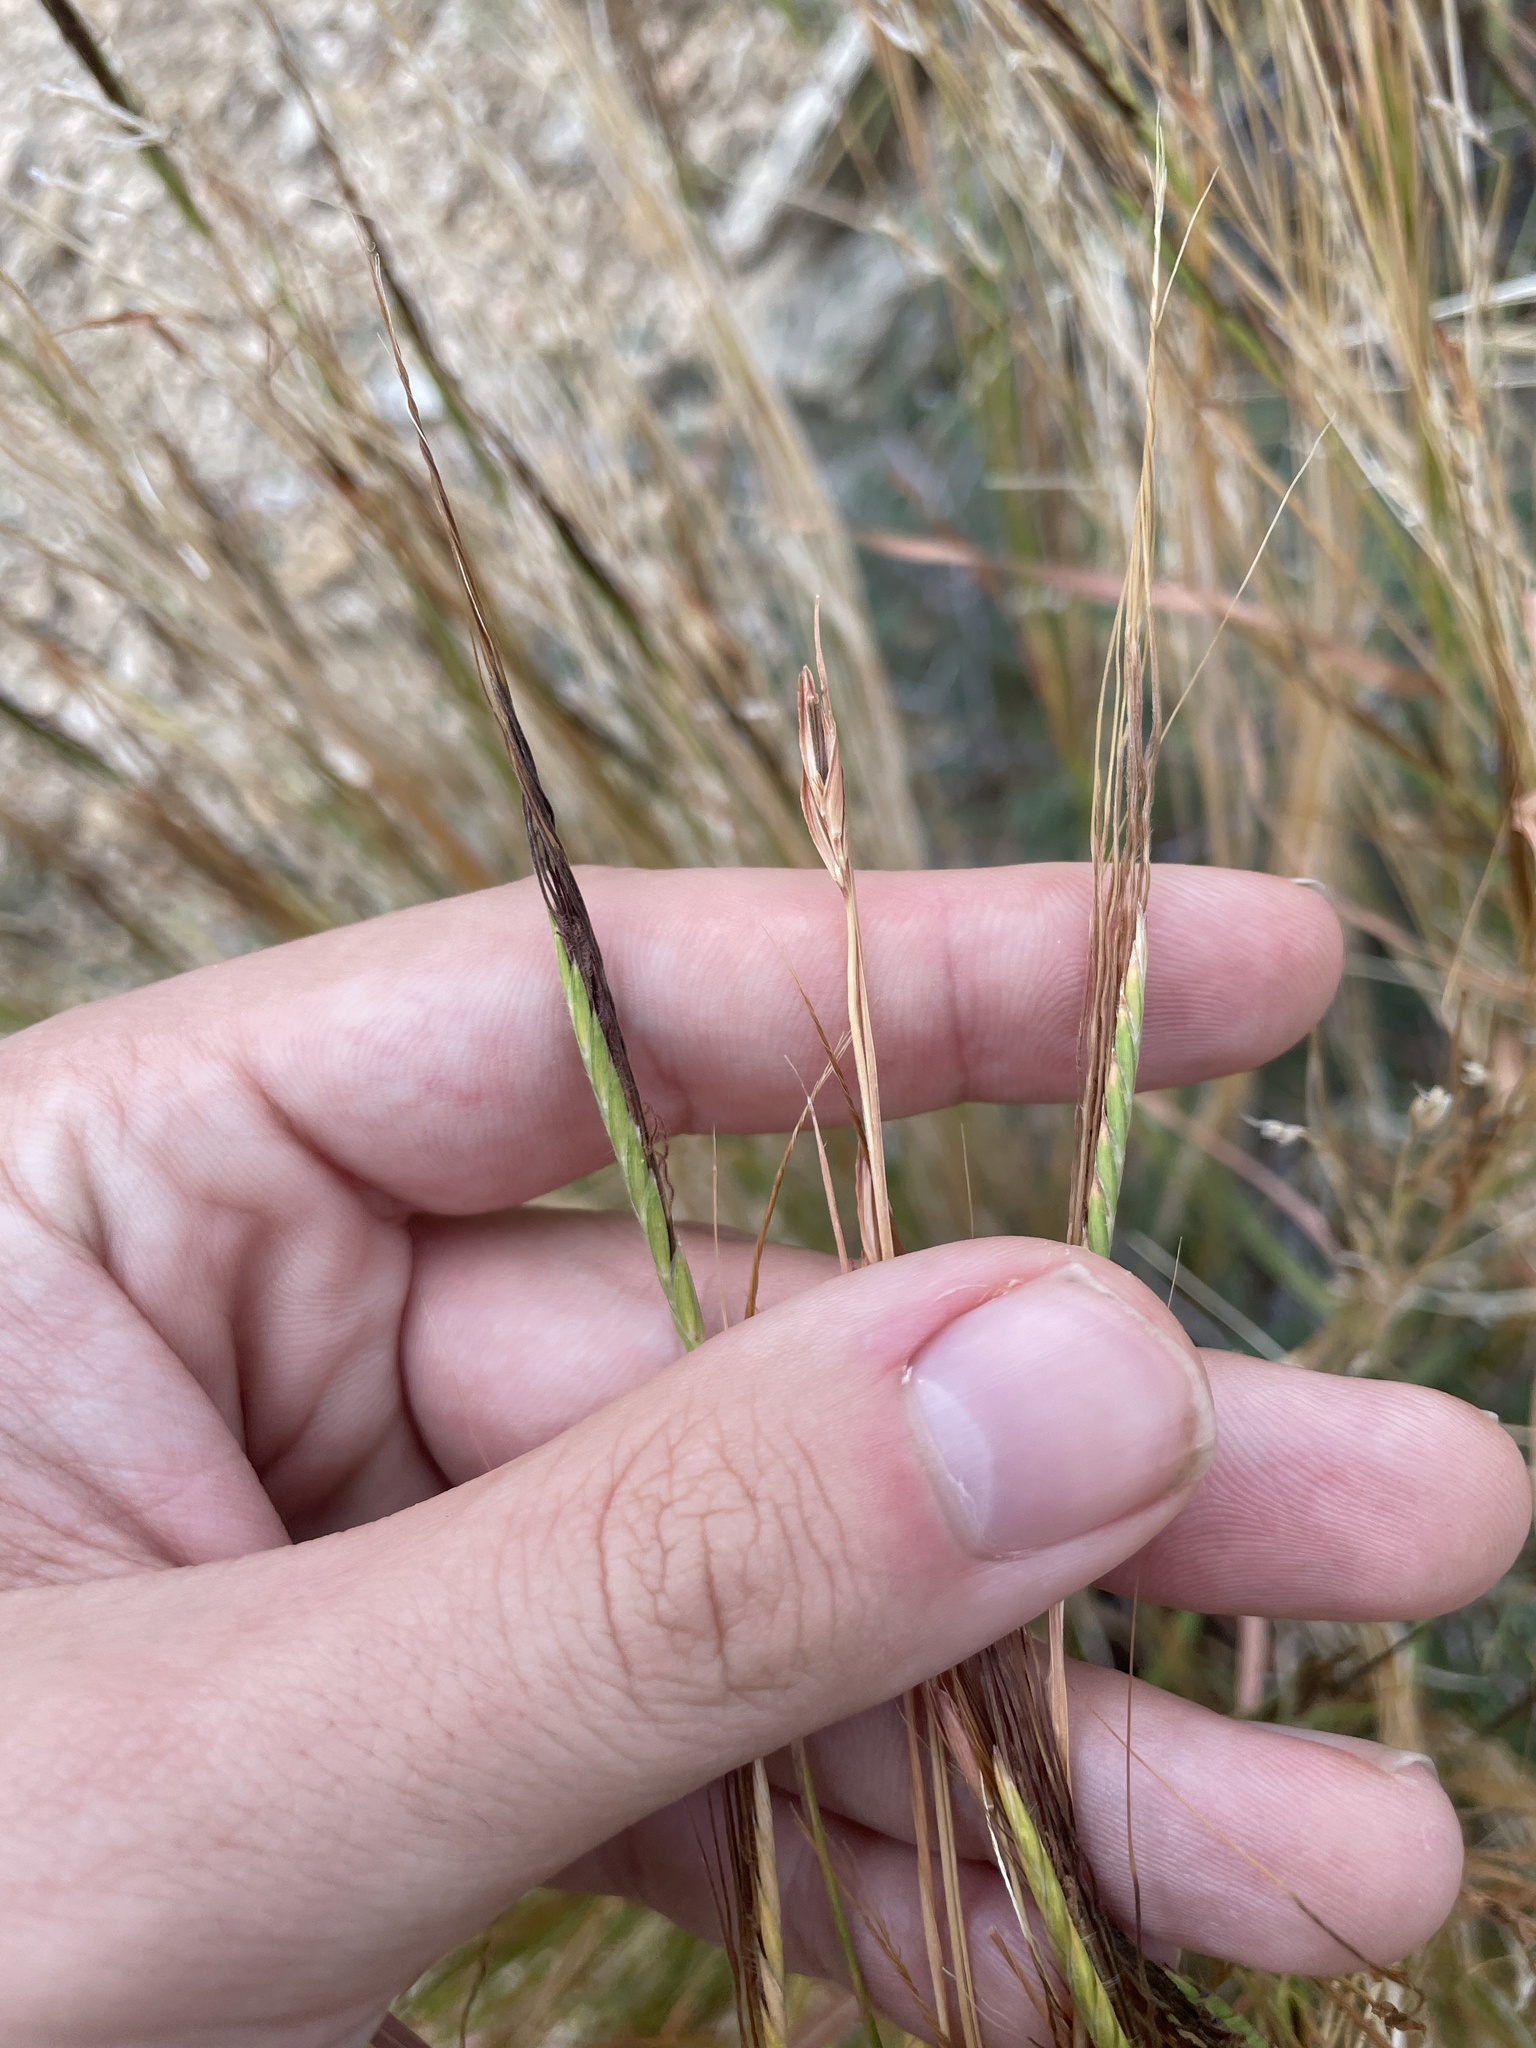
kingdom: Plantae
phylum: Tracheophyta
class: Liliopsida
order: Poales
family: Poaceae
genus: Heteropogon
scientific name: Heteropogon contortus
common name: Tanglehead
